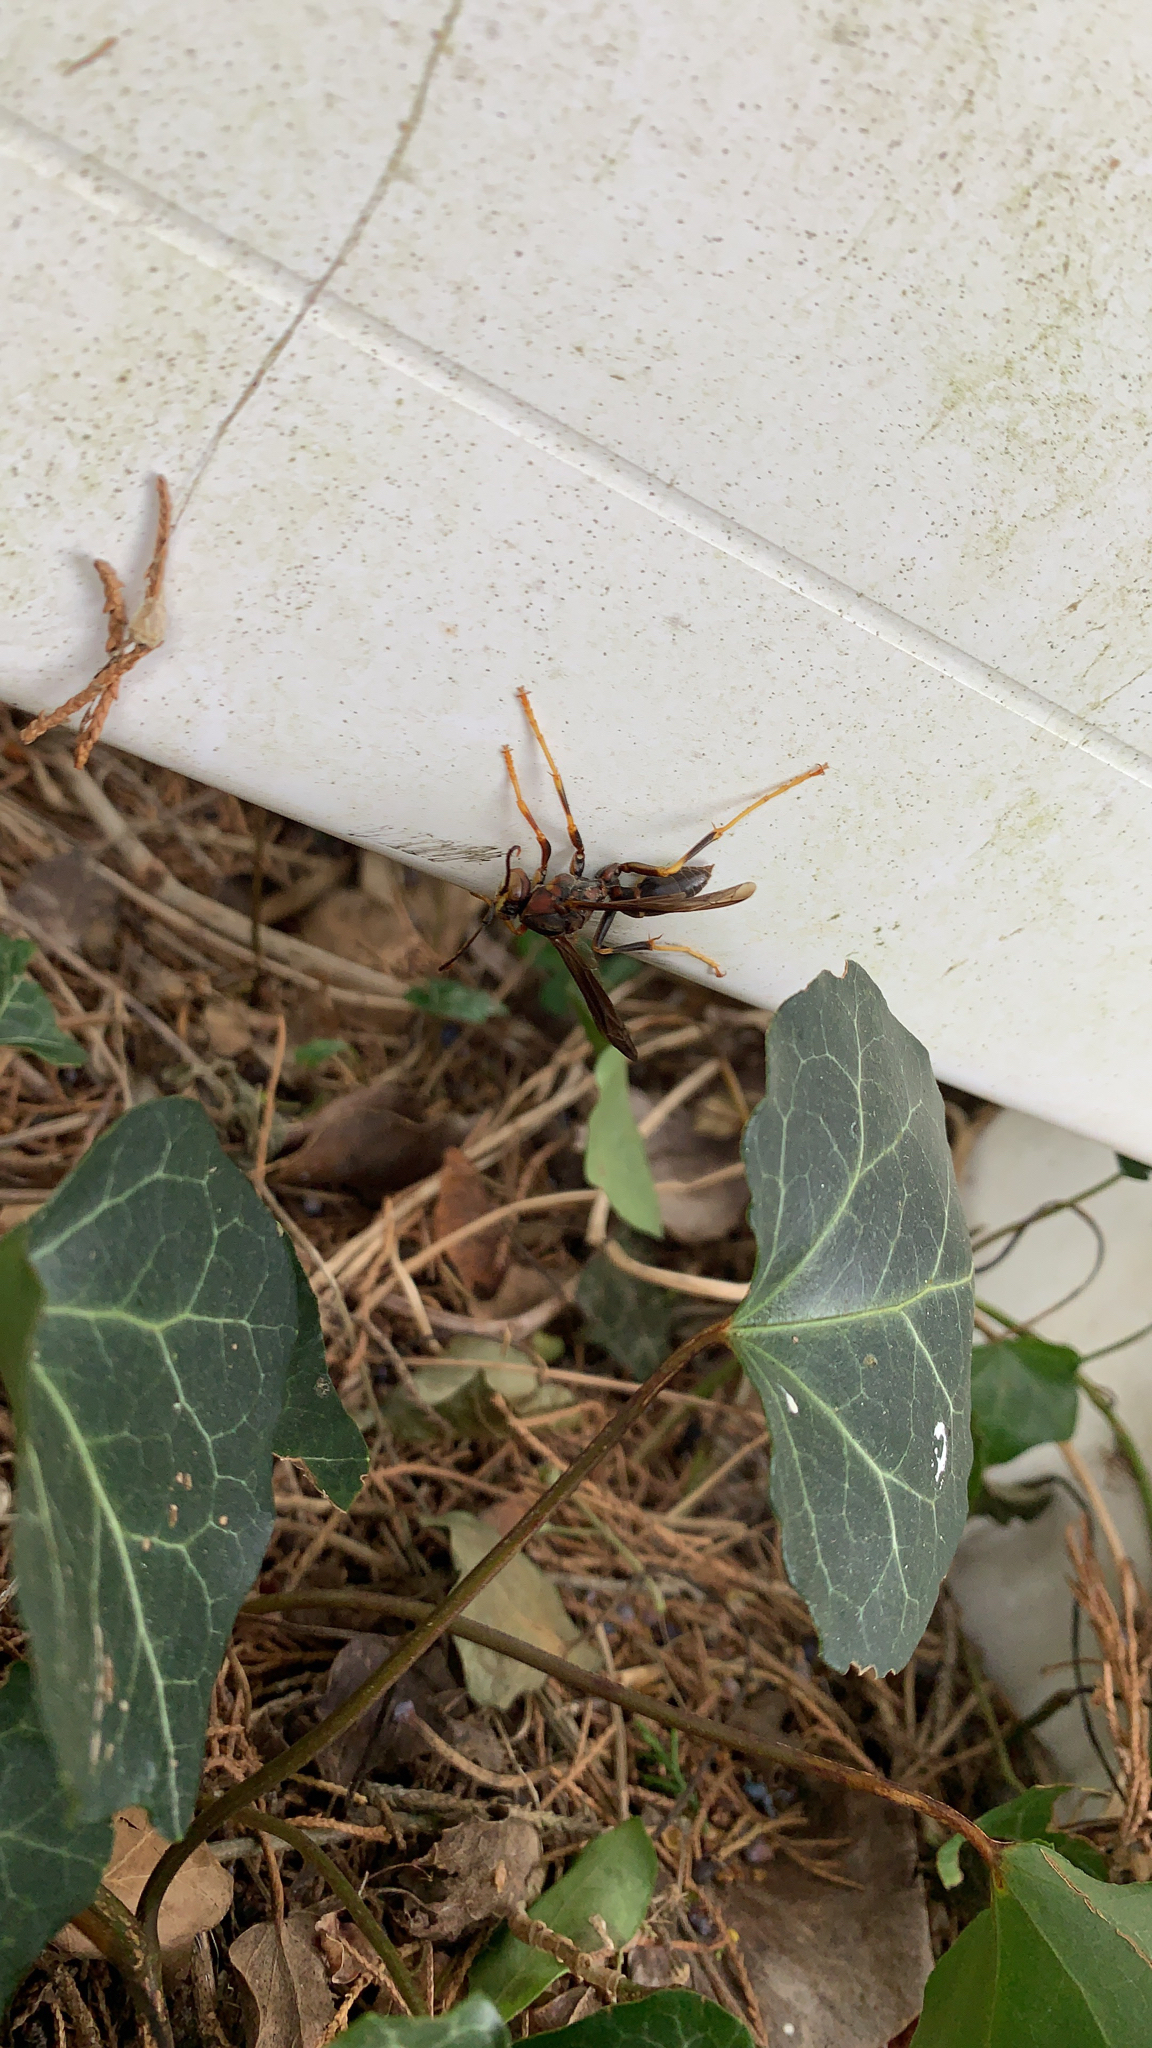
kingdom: Animalia
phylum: Arthropoda
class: Insecta
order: Hymenoptera
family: Eumenidae
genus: Polistes
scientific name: Polistes metricus
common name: Metric paper wasp
